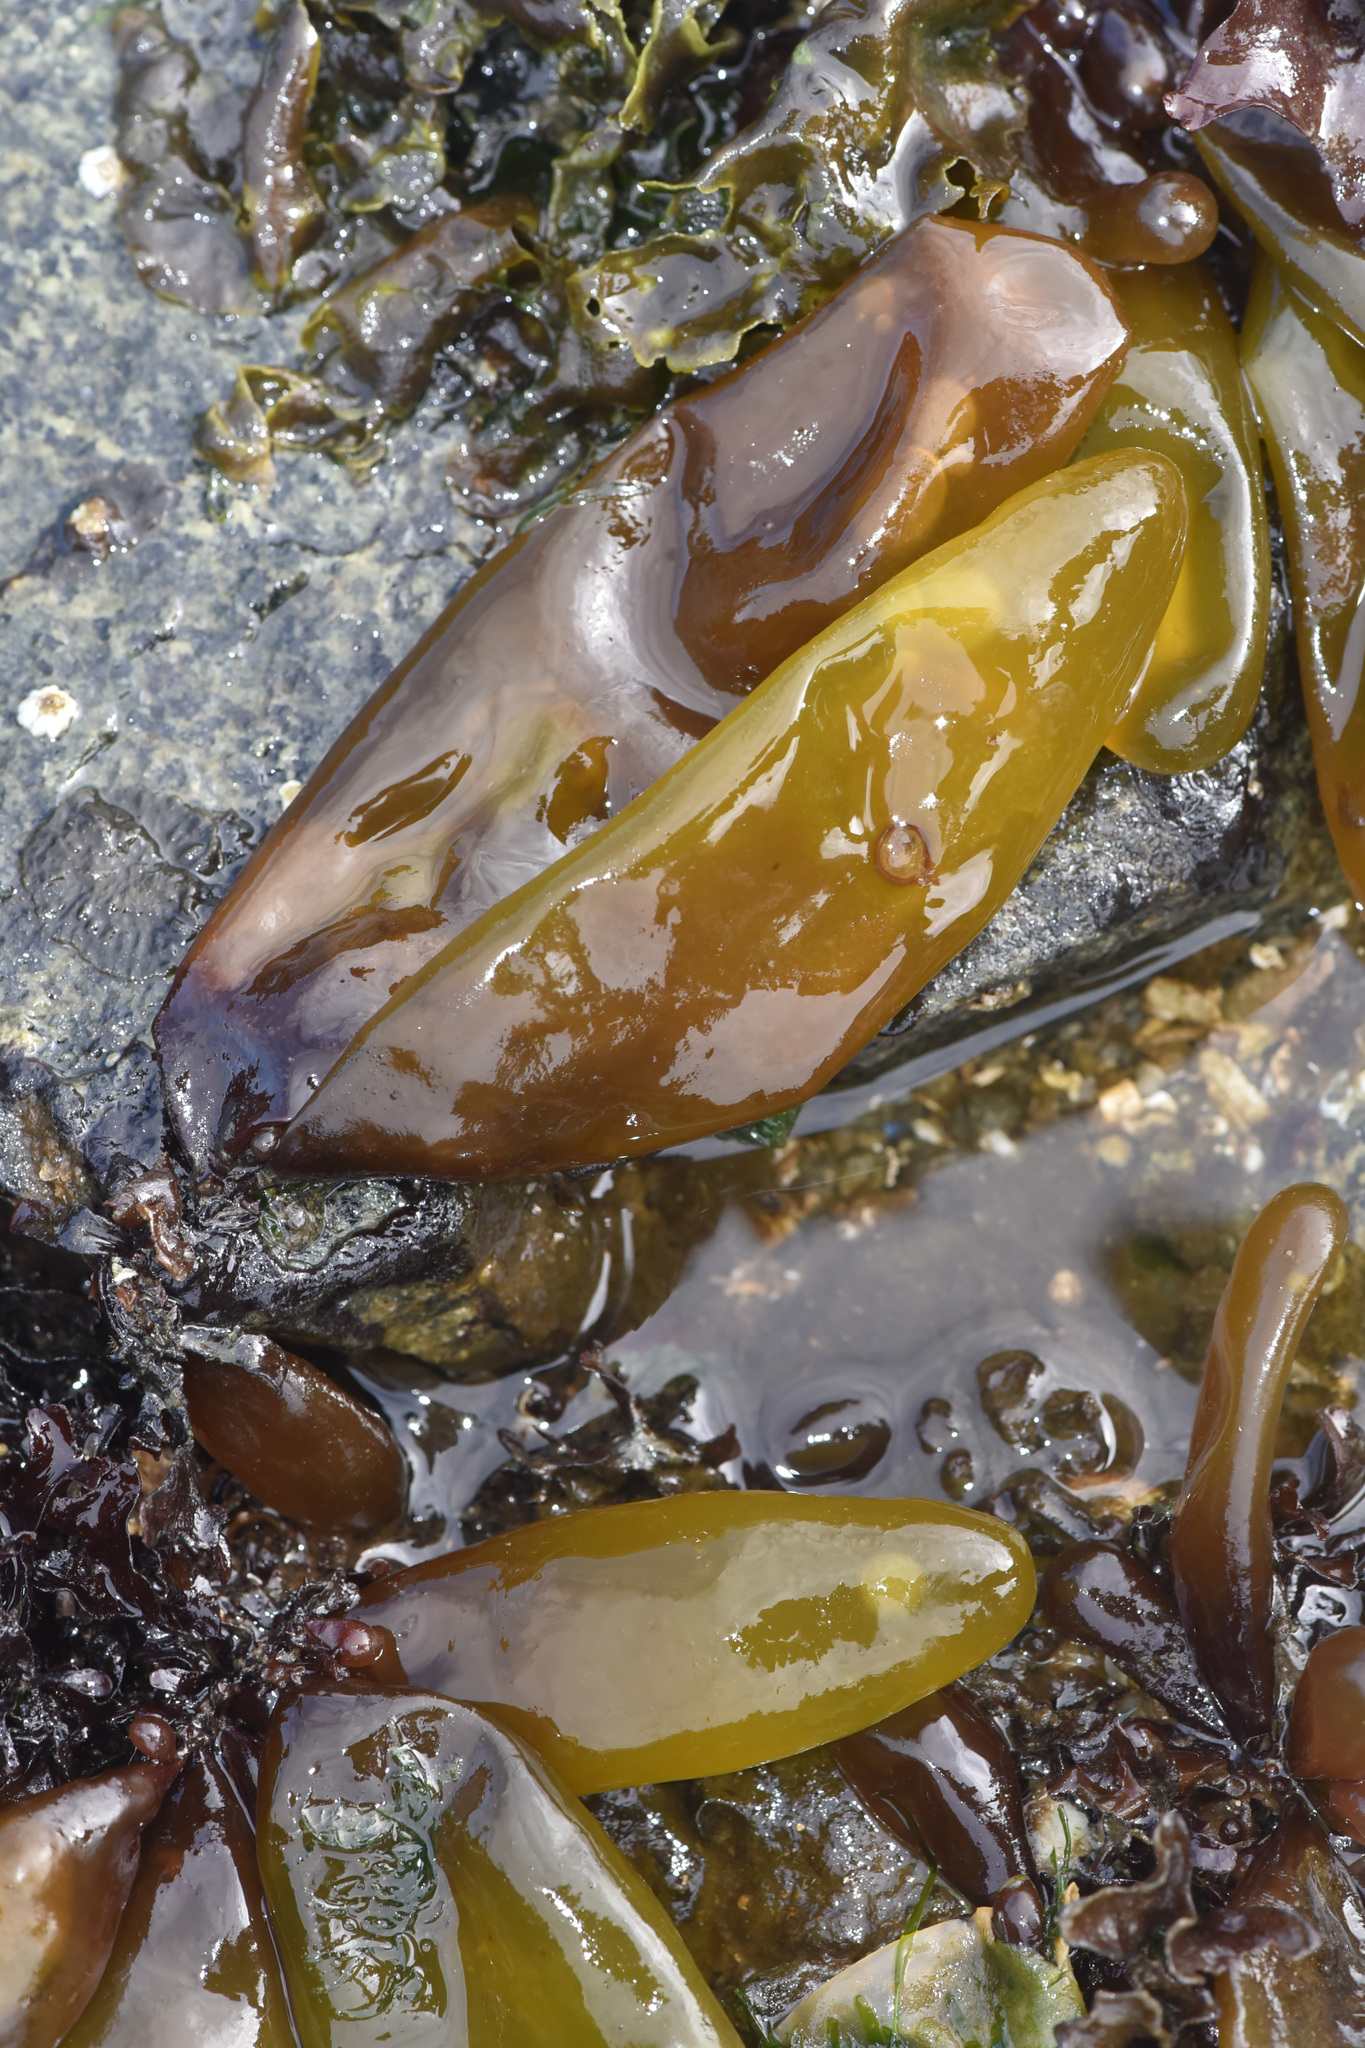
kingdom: Plantae
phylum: Rhodophyta
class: Florideophyceae
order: Palmariales
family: Palmariaceae
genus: Halosaccion
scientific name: Halosaccion glandiforme
